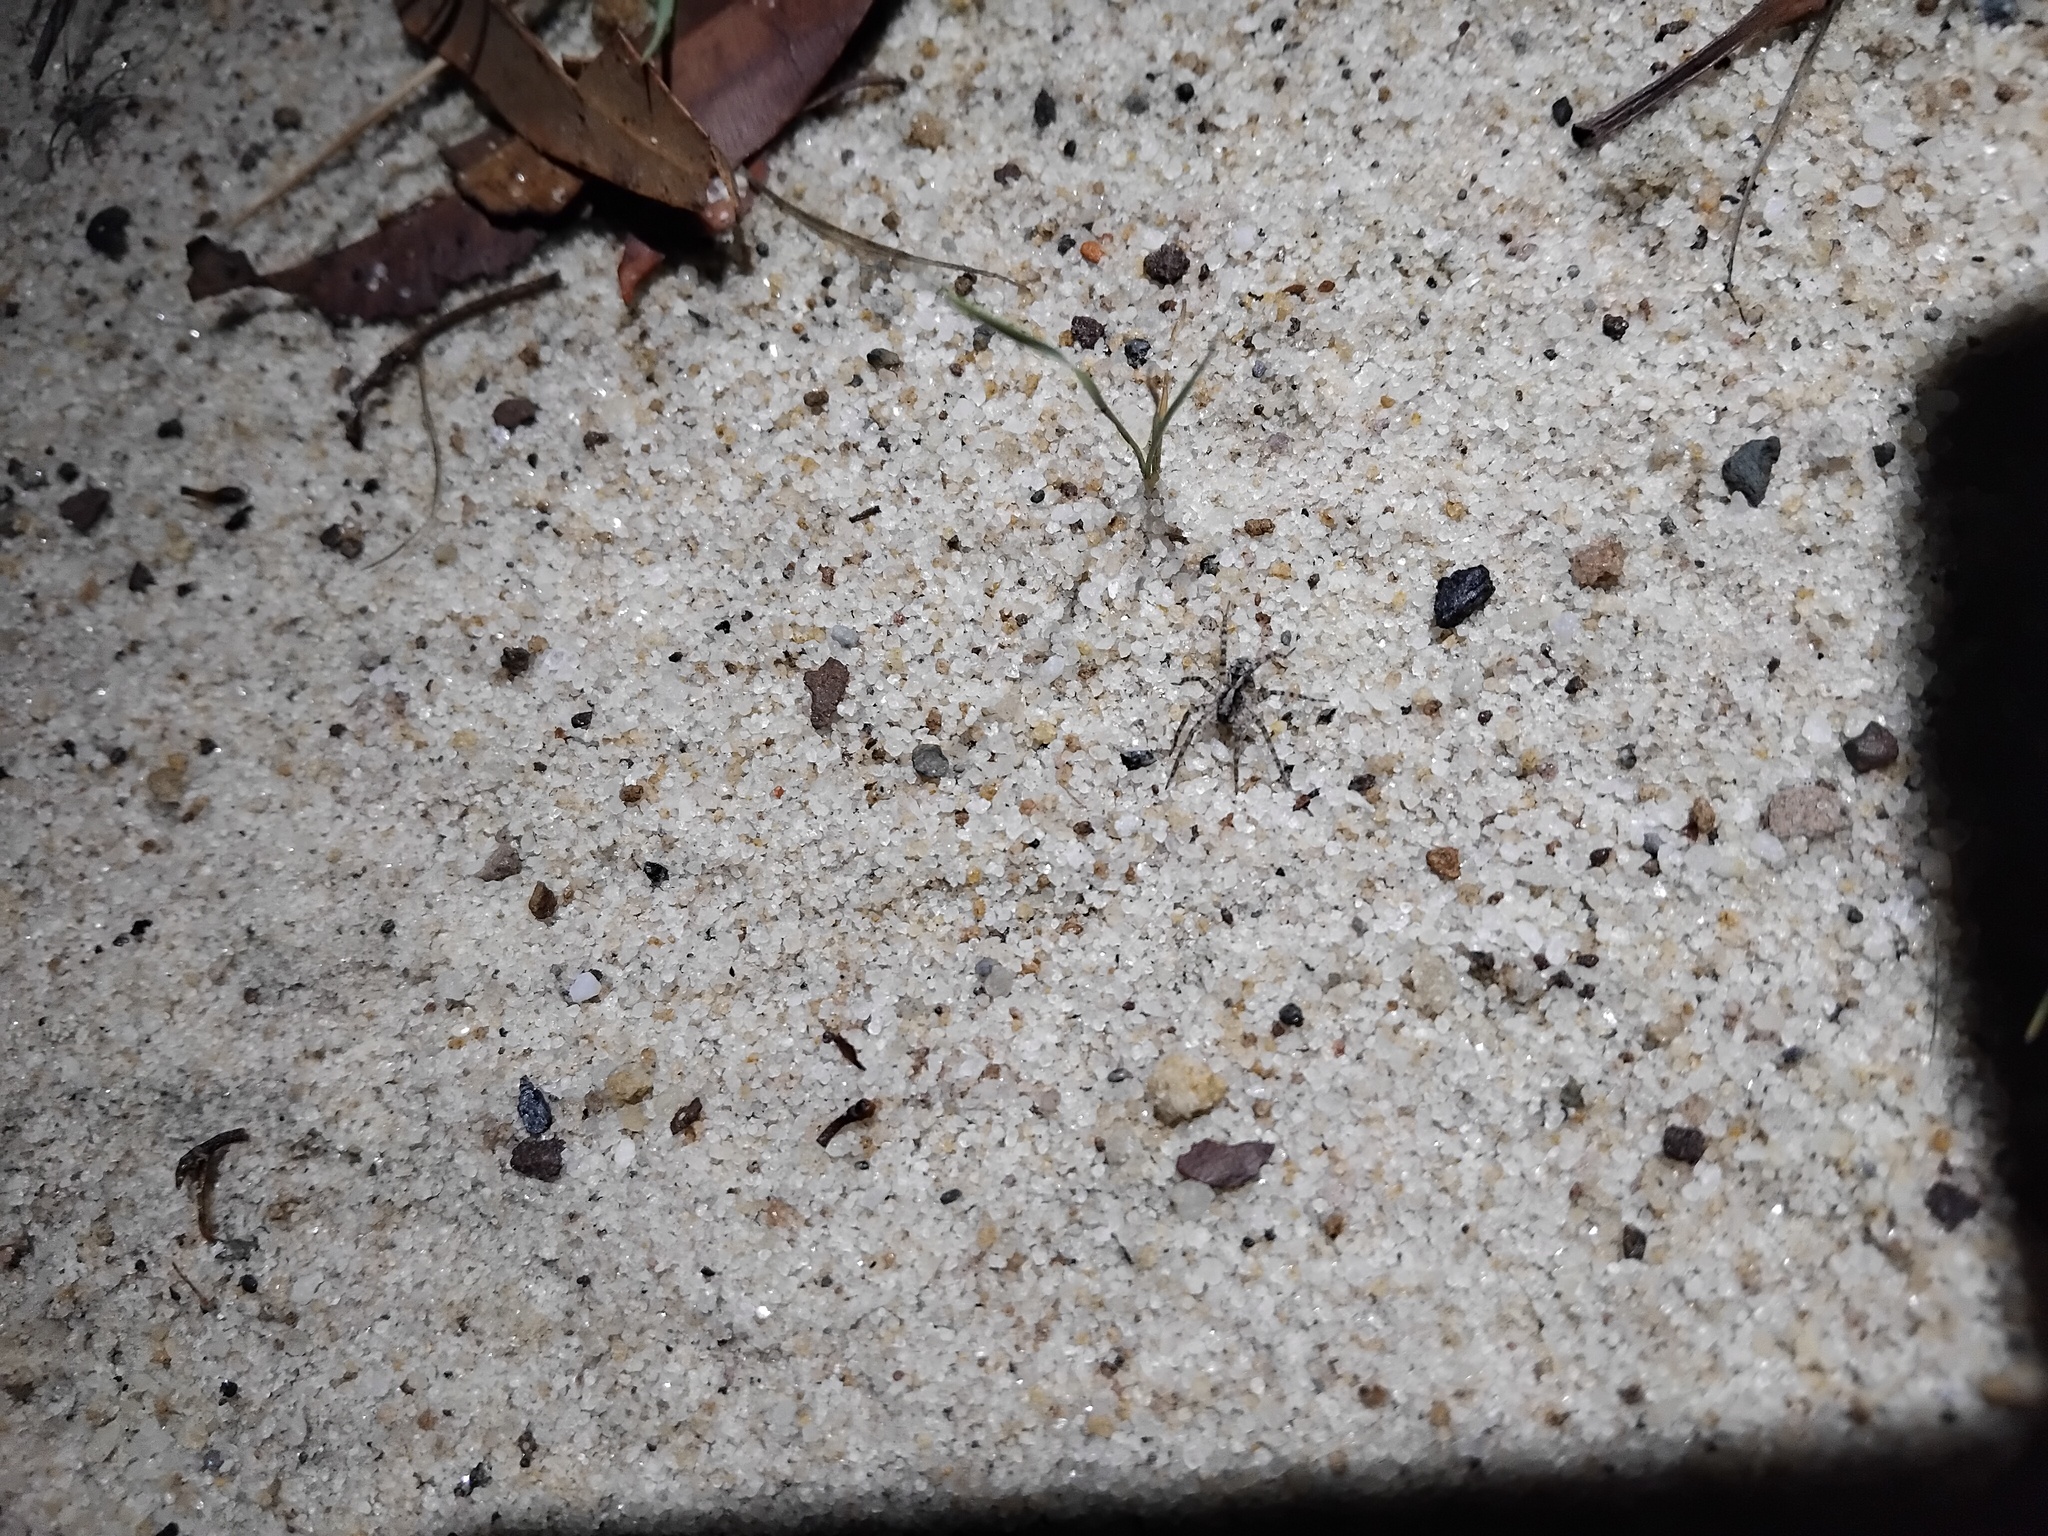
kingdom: Animalia
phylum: Arthropoda
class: Arachnida
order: Araneae
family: Lycosidae
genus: Venator
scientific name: Venator spenceri
